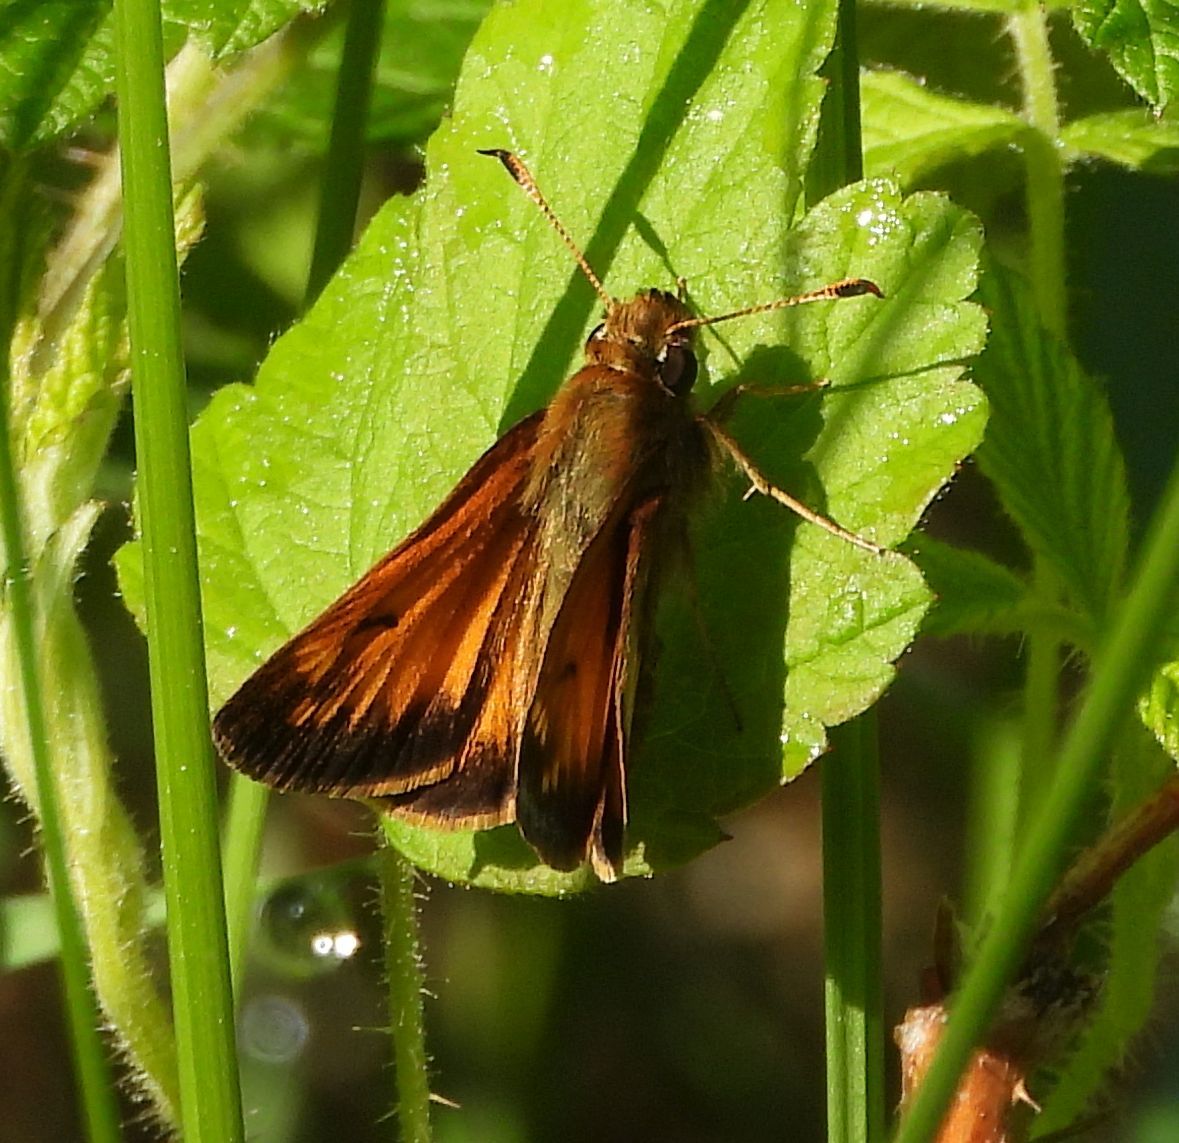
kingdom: Animalia
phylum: Arthropoda
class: Insecta
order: Lepidoptera
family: Hesperiidae
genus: Lon
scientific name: Lon hobomok
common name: Hobomok skipper
